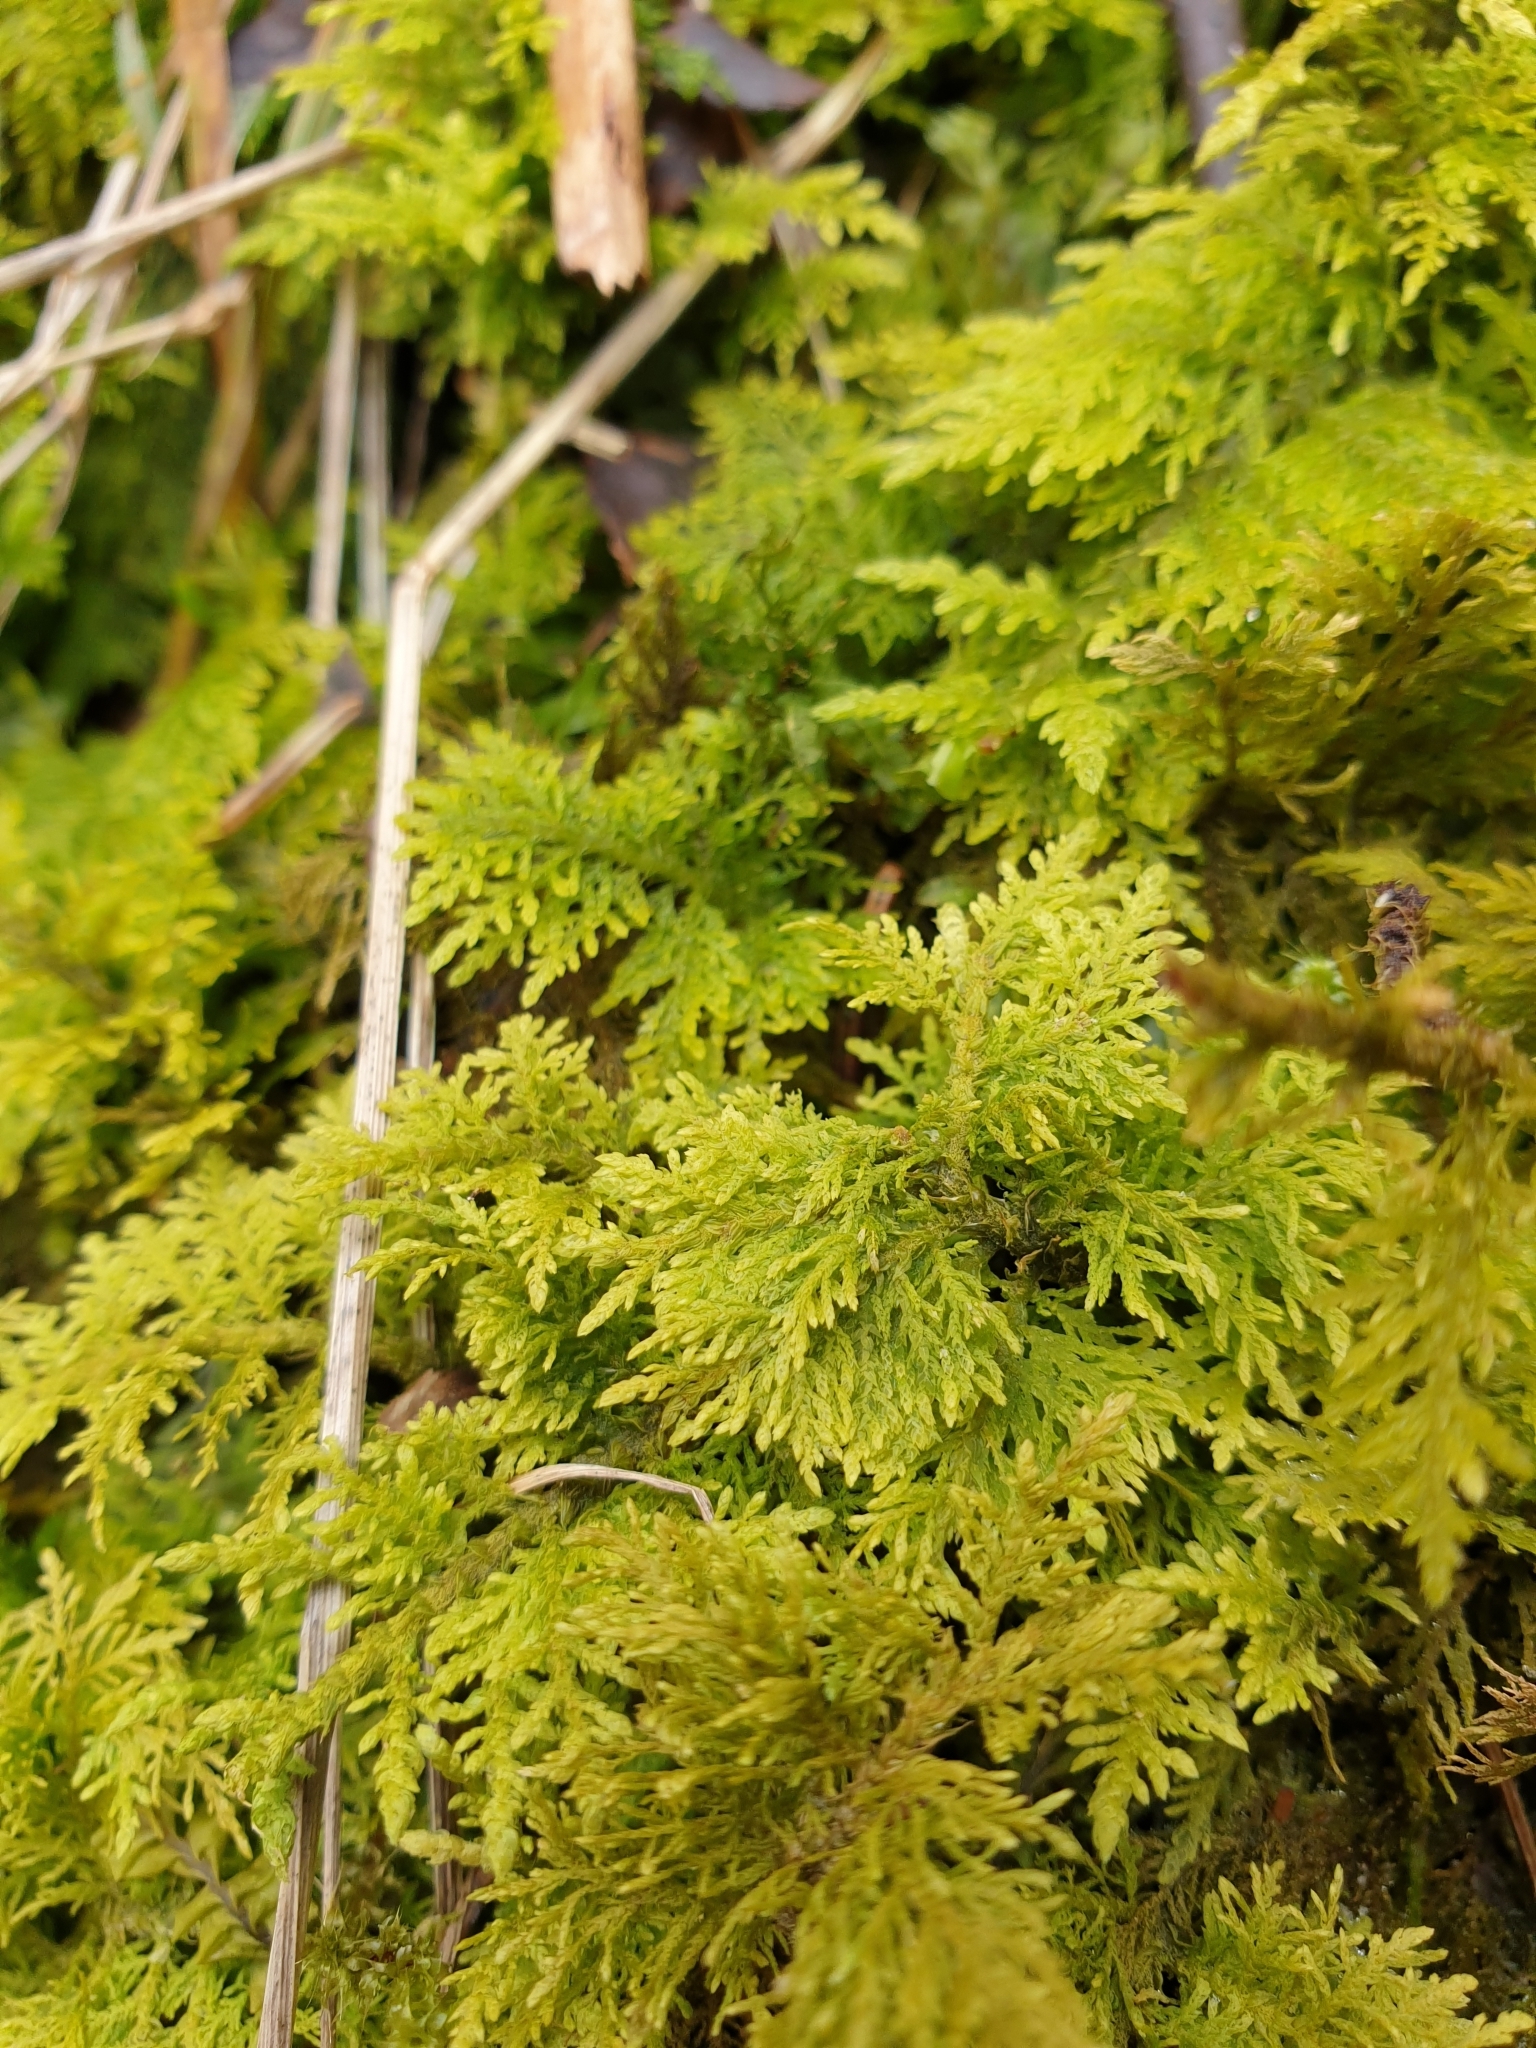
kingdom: Plantae
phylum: Bryophyta
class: Bryopsida
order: Hypnales
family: Thuidiaceae
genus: Thuidium
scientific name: Thuidium tamariscinum
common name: Common tamarisk-moss
